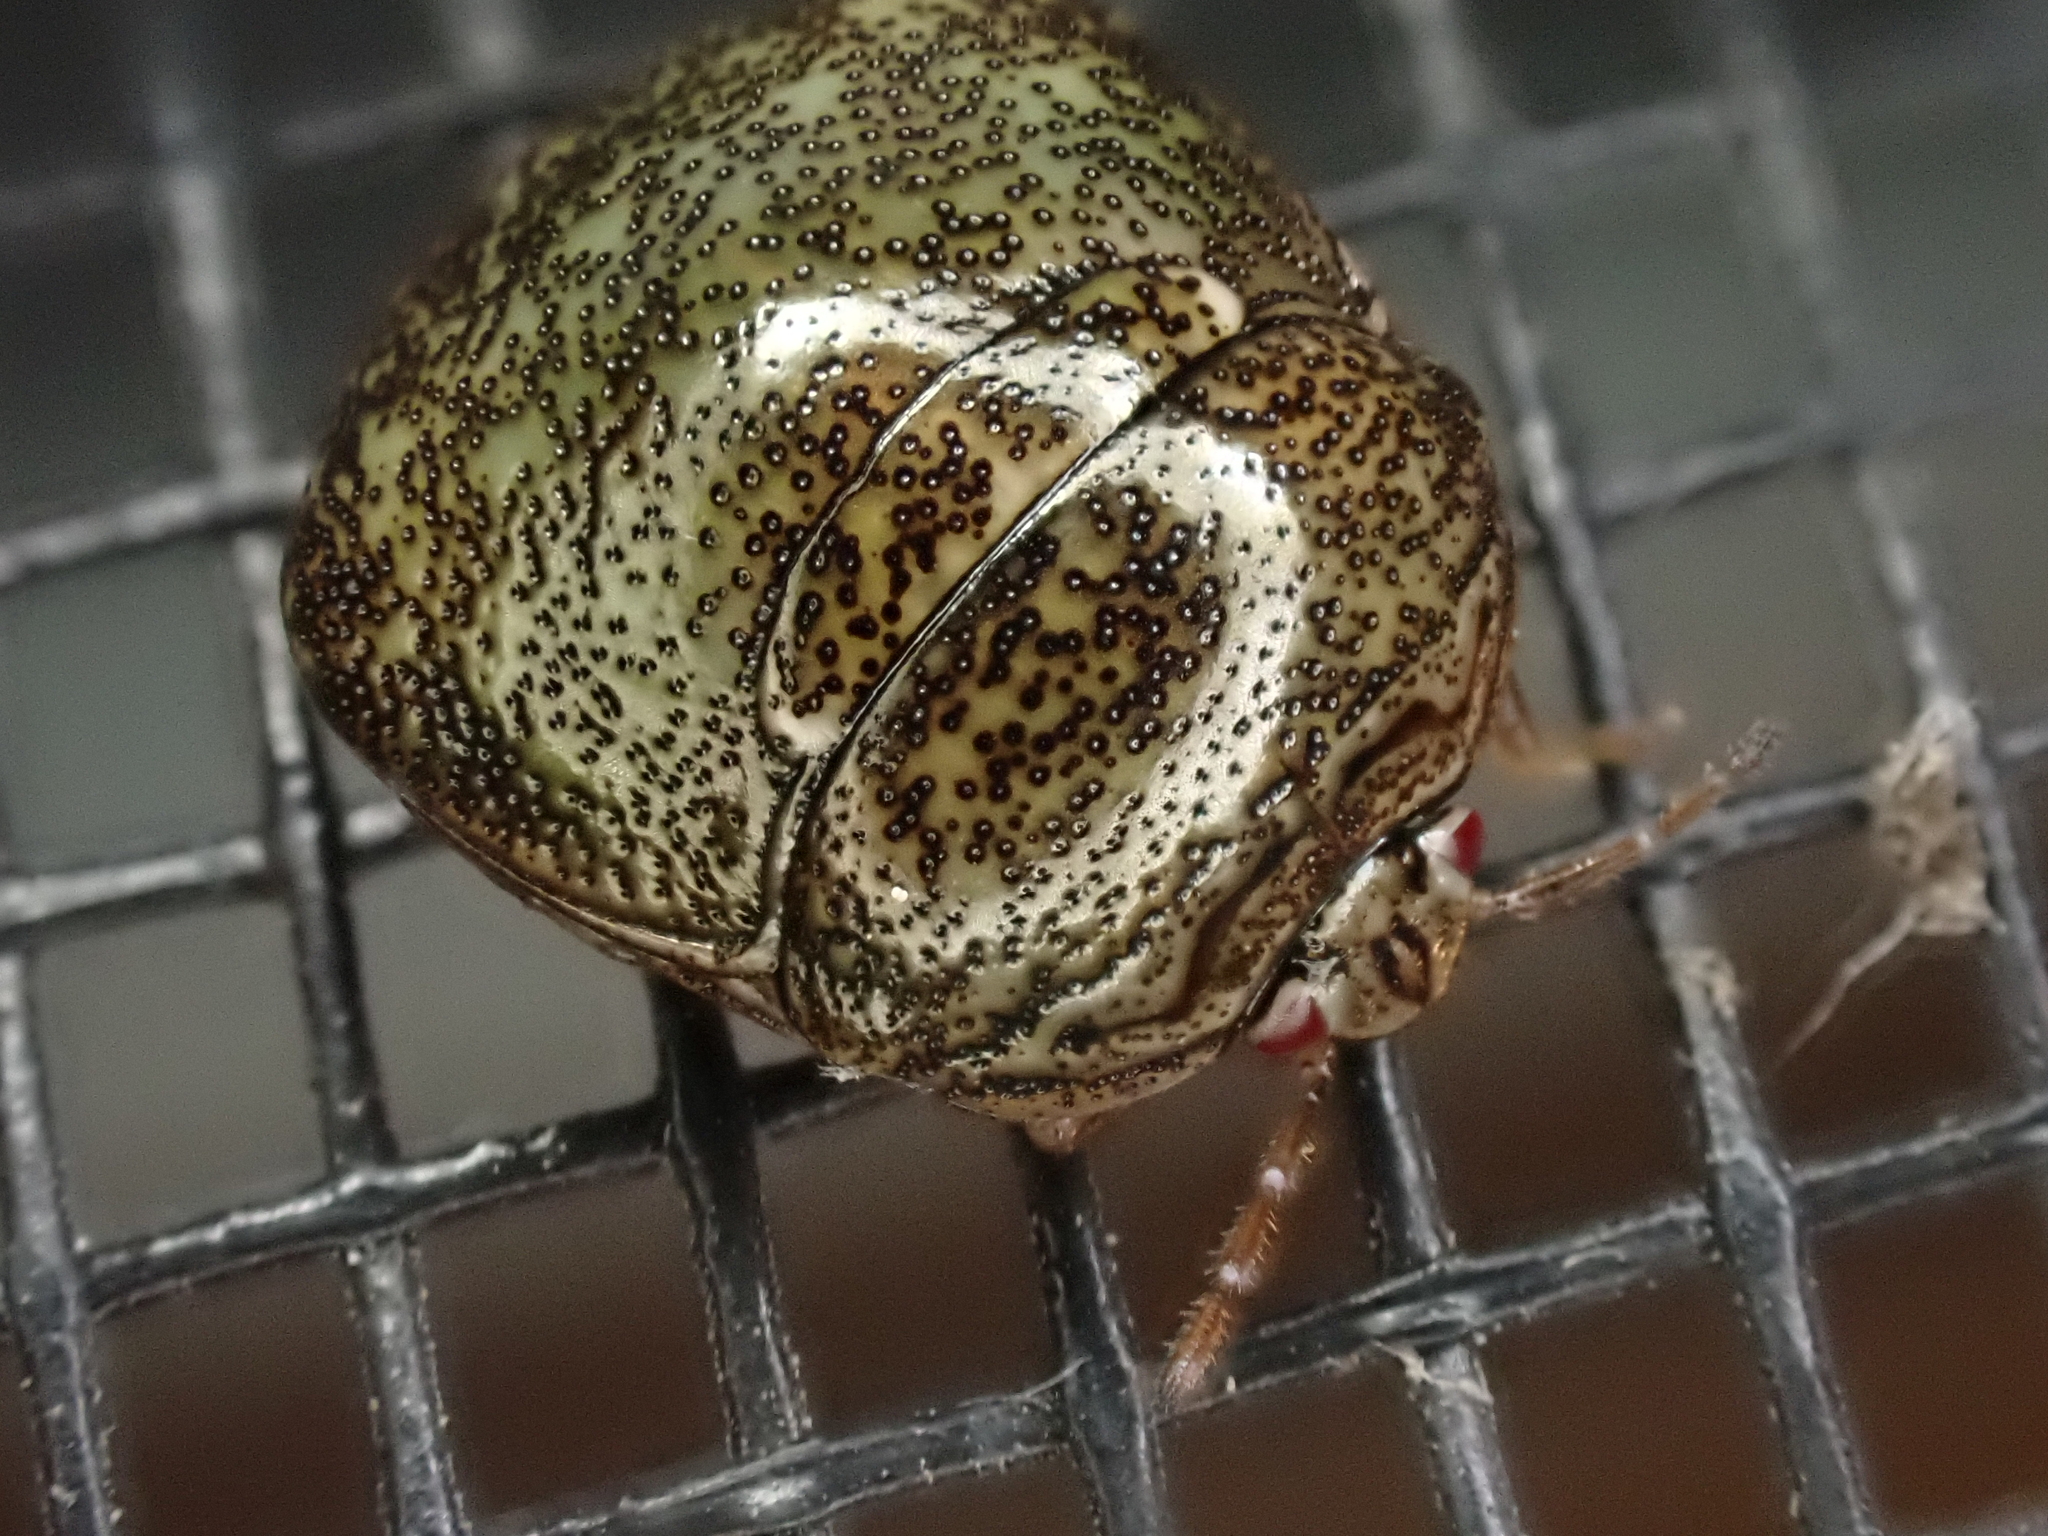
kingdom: Animalia
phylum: Arthropoda
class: Insecta
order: Hemiptera
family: Plataspidae
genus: Megacopta
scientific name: Megacopta cribraria
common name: Bean plataspid
